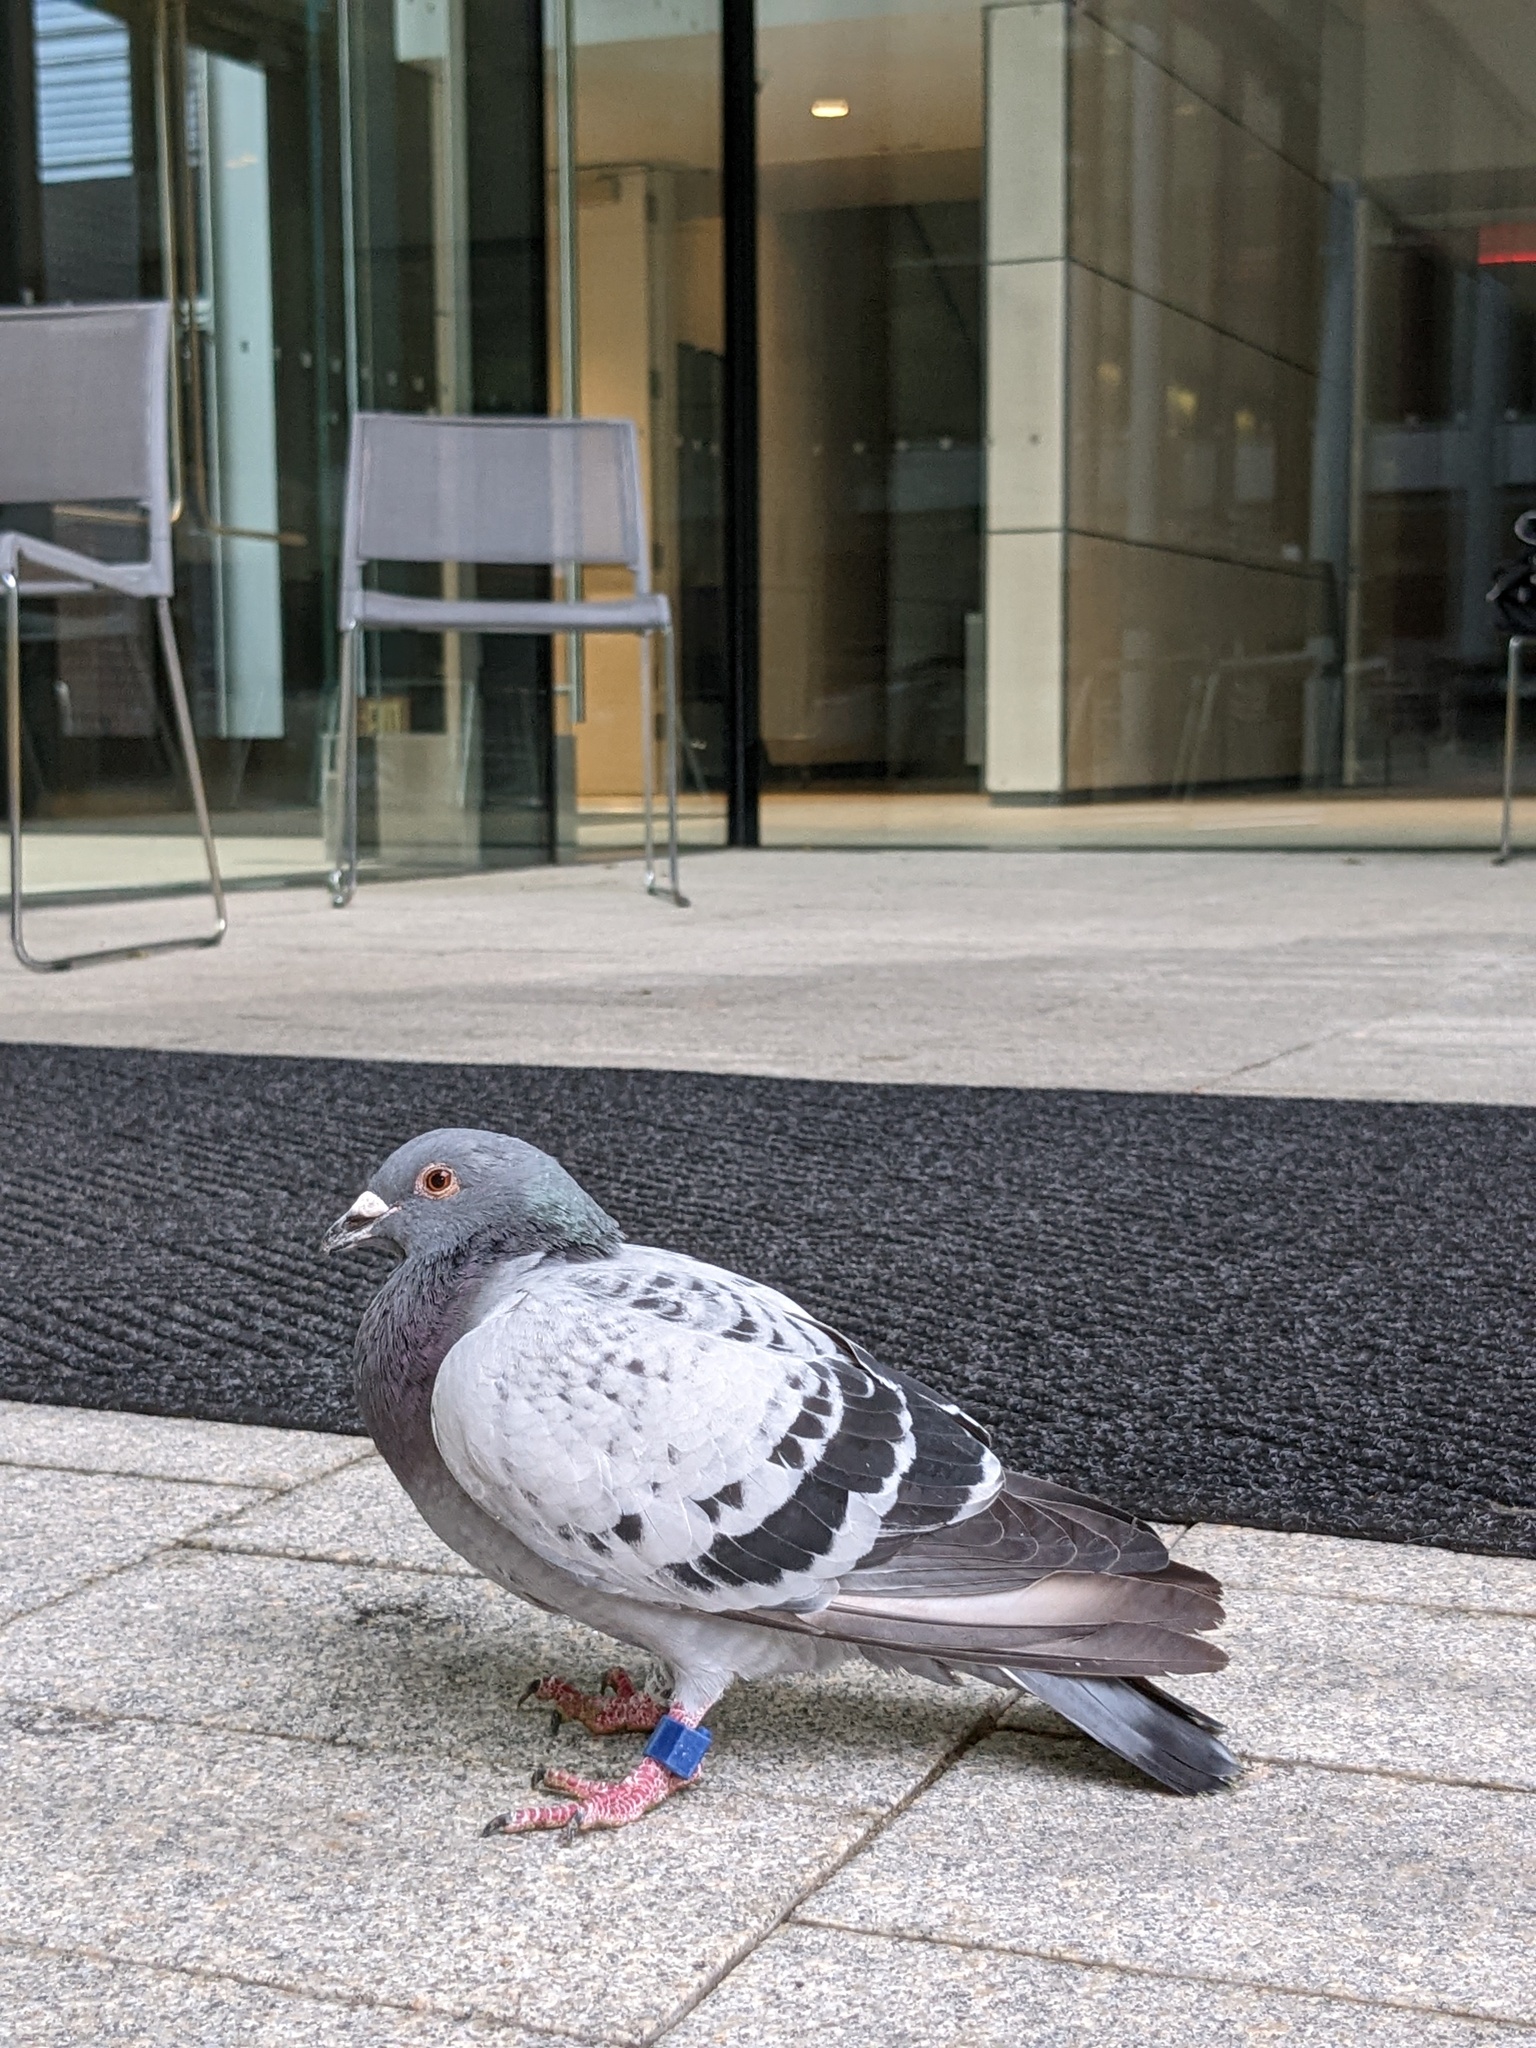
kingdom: Animalia
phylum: Chordata
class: Aves
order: Columbiformes
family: Columbidae
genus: Columba
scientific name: Columba livia
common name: Rock pigeon
